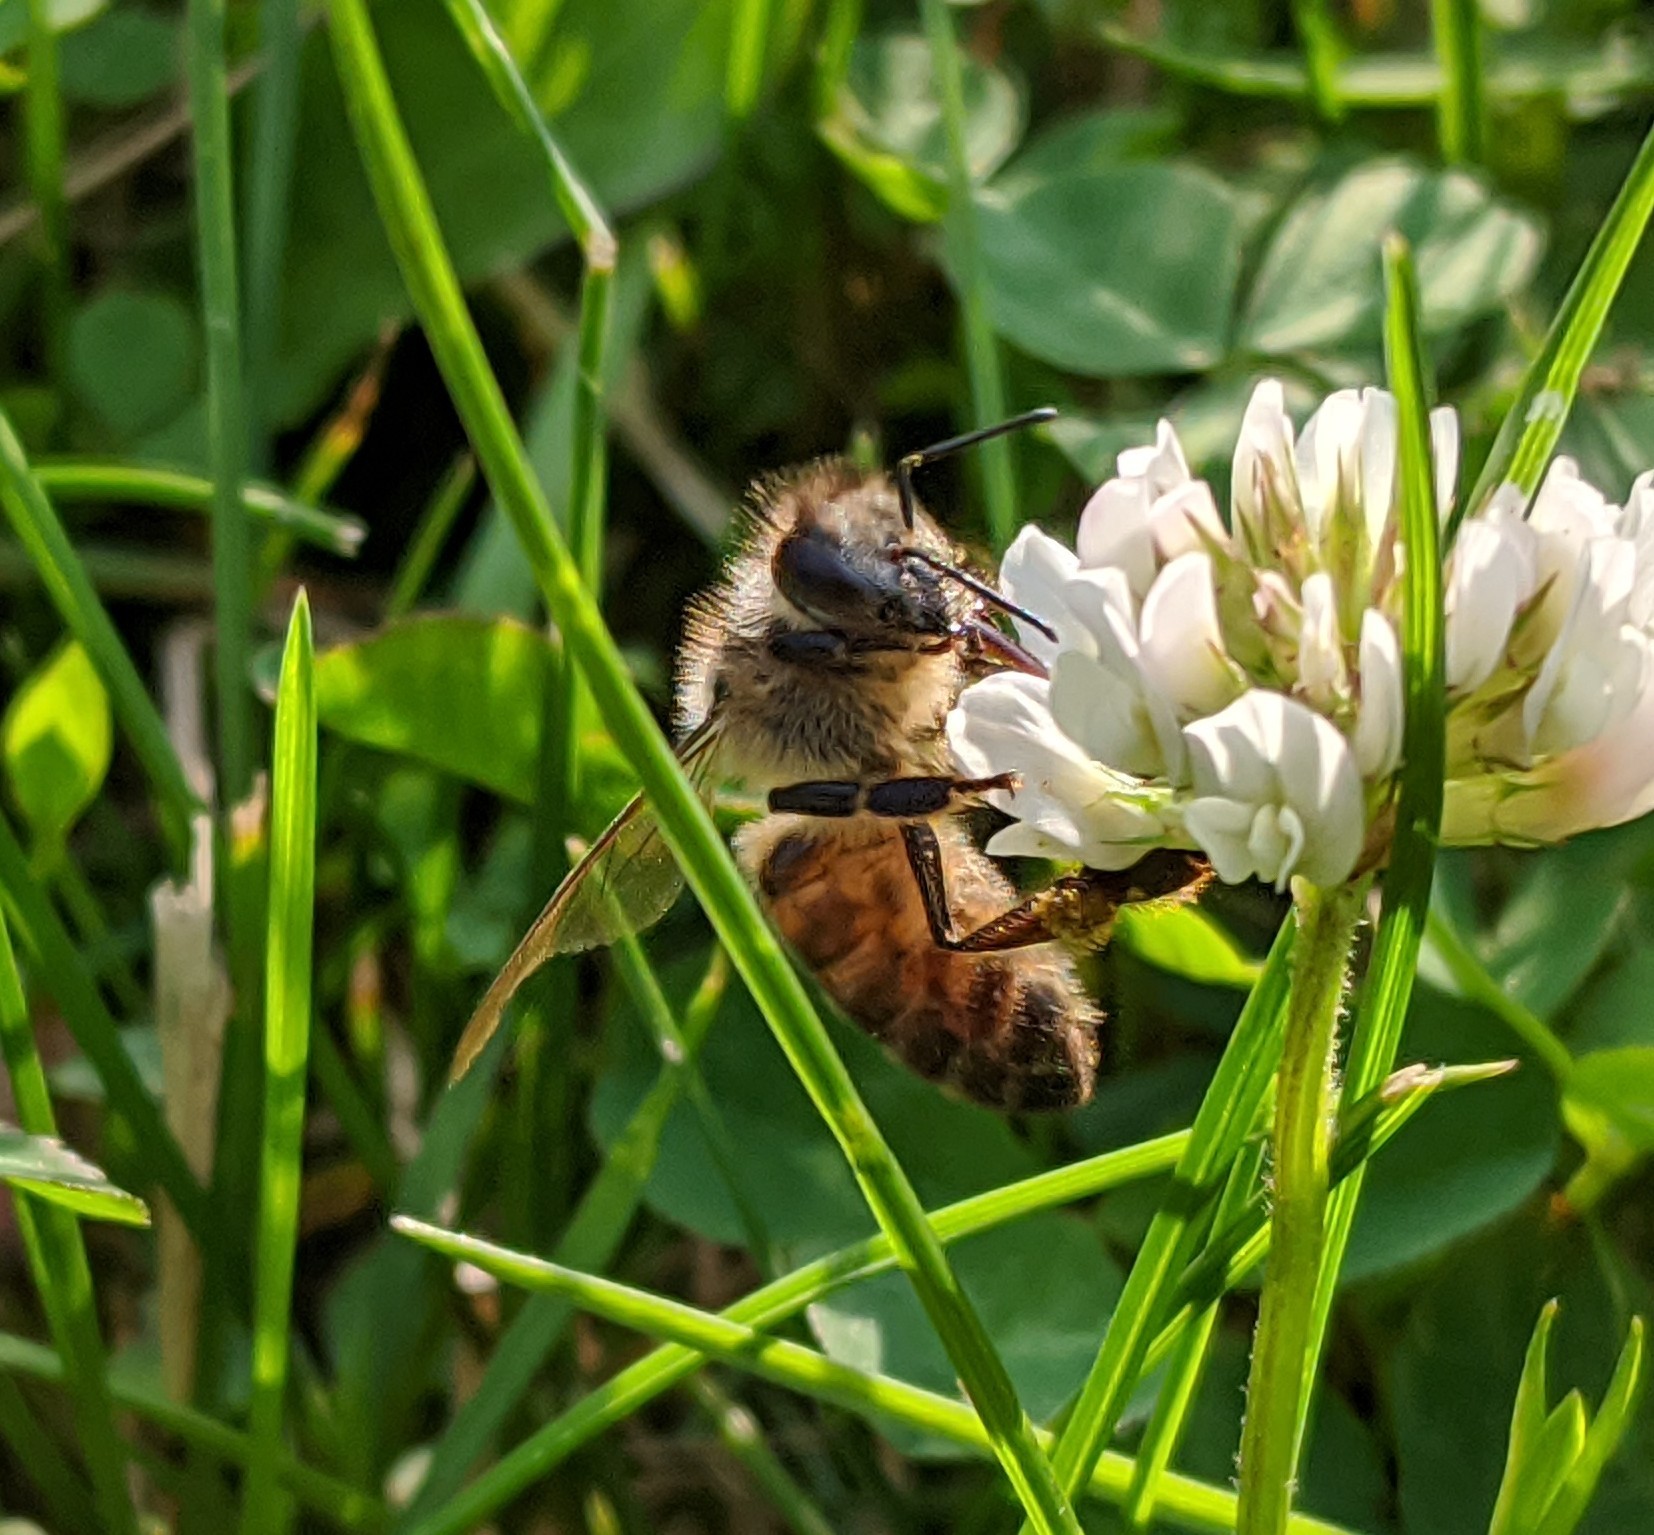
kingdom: Animalia
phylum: Arthropoda
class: Insecta
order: Hymenoptera
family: Apidae
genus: Apis
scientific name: Apis mellifera
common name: Honey bee
